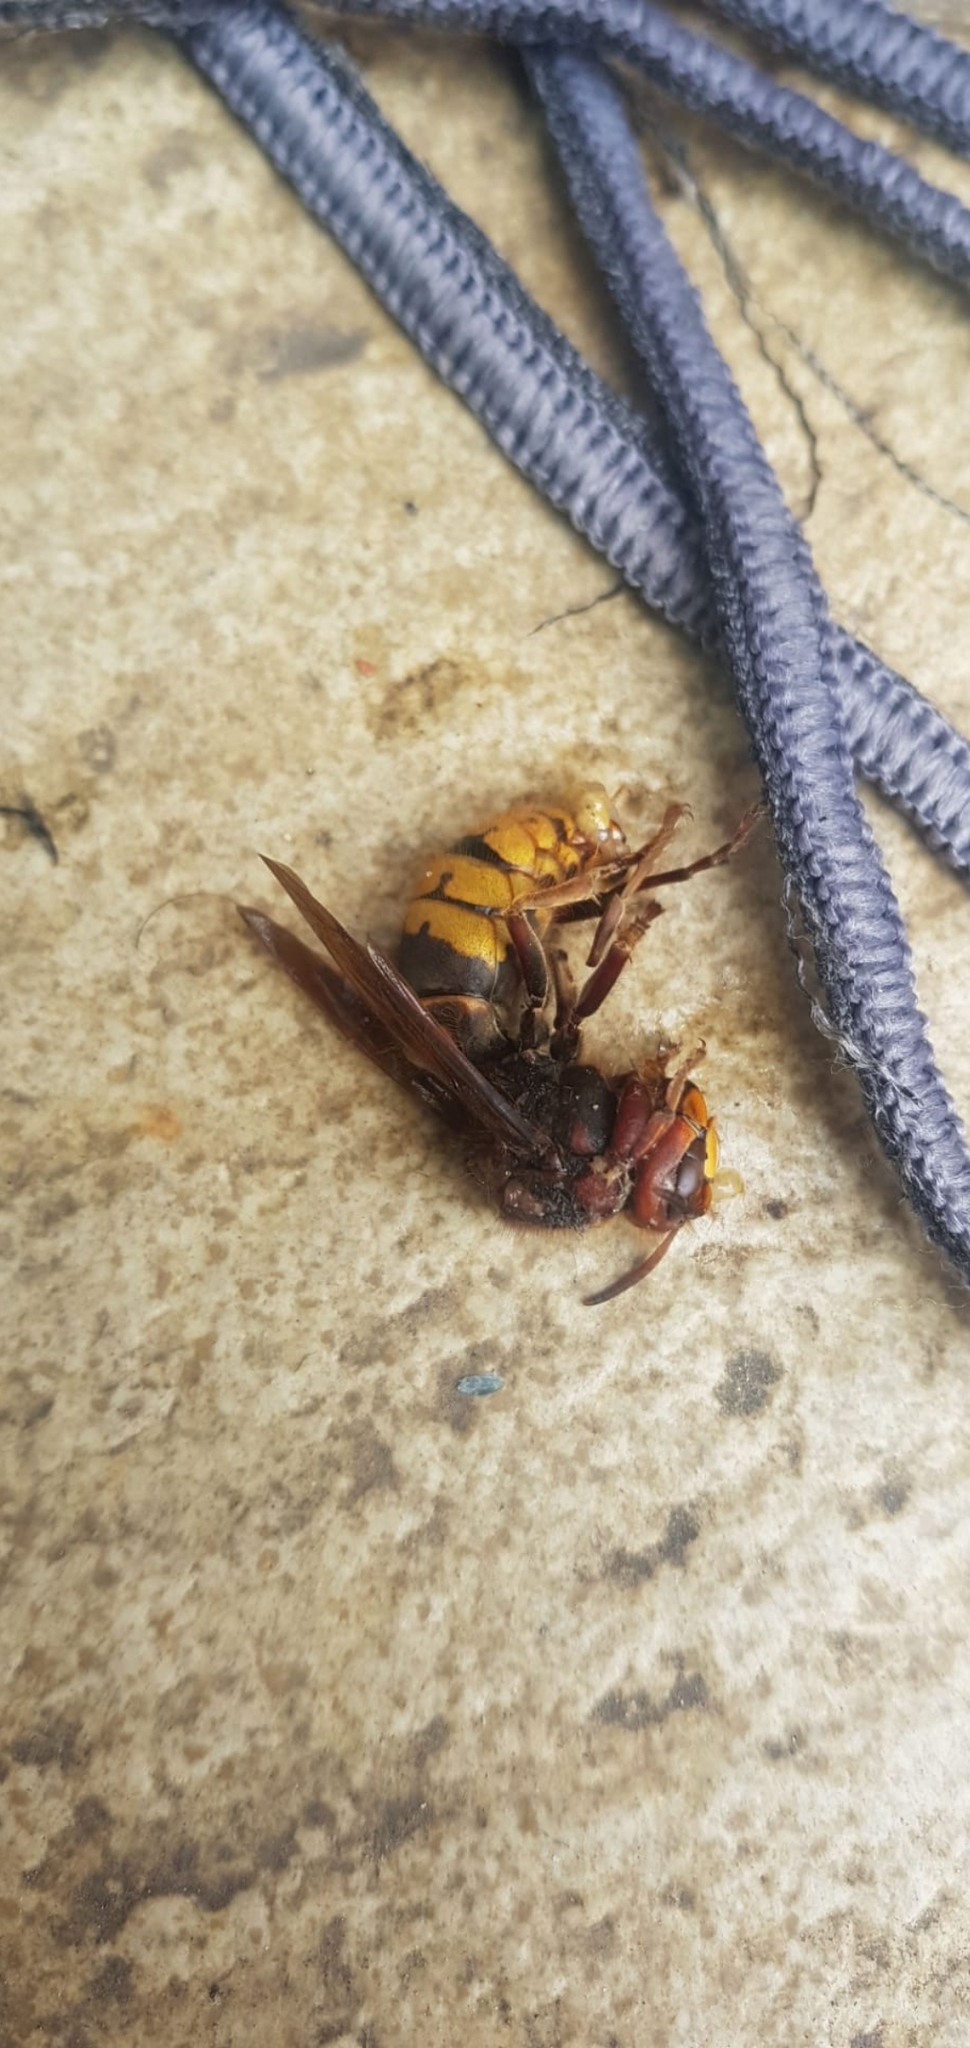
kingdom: Animalia
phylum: Arthropoda
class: Insecta
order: Hymenoptera
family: Vespidae
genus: Vespa
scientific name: Vespa crabro
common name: Hornet
